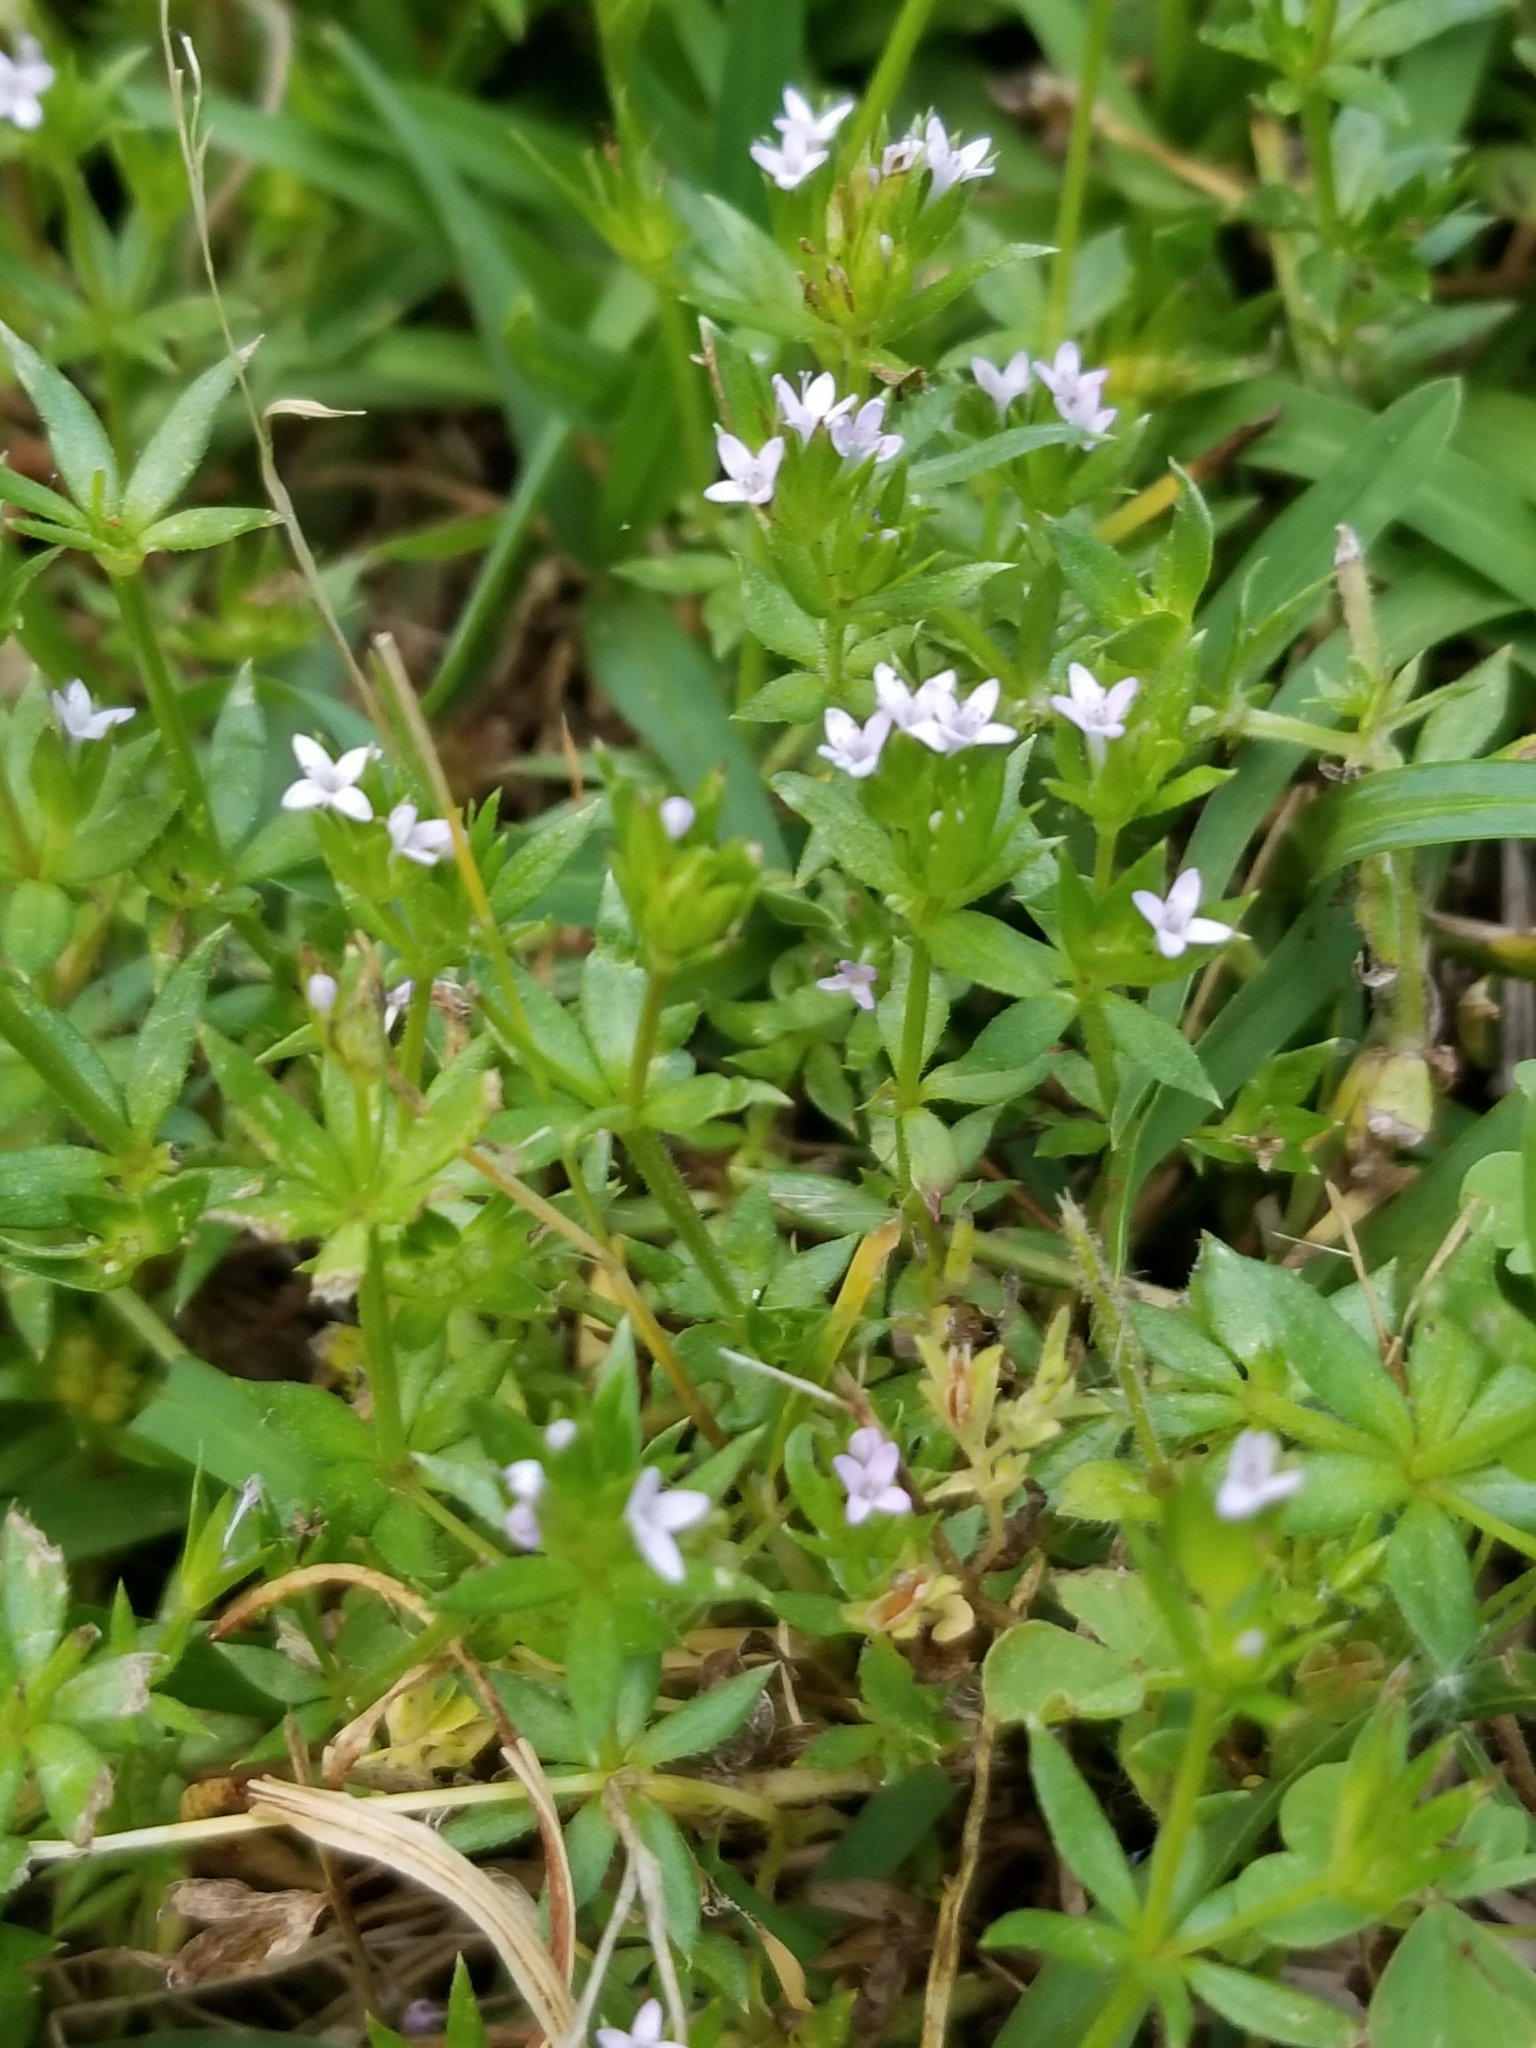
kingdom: Plantae
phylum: Tracheophyta
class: Magnoliopsida
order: Gentianales
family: Rubiaceae
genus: Sherardia
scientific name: Sherardia arvensis
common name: Field madder
